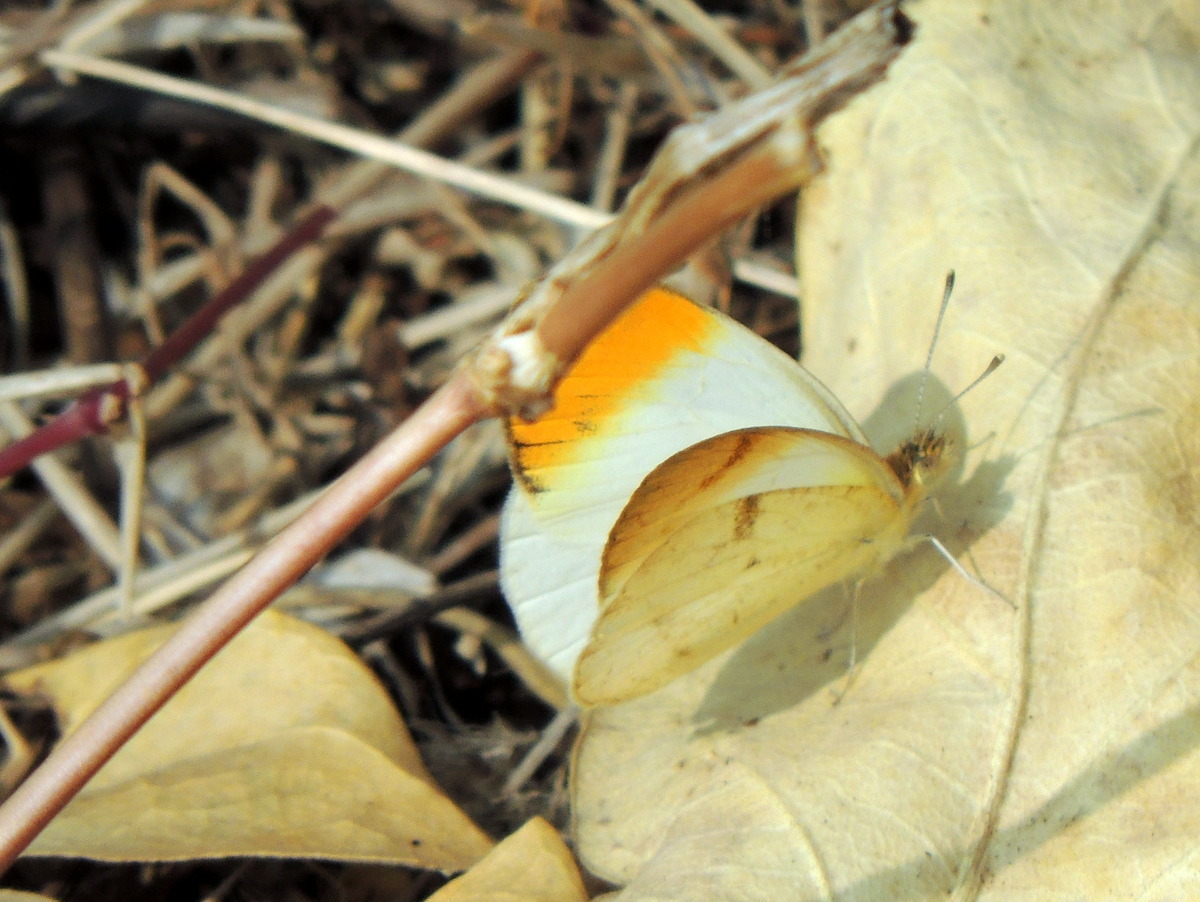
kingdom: Animalia
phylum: Arthropoda
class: Insecta
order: Lepidoptera
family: Pieridae
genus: Colotis
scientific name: Colotis aurora
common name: Plain orange-tip
